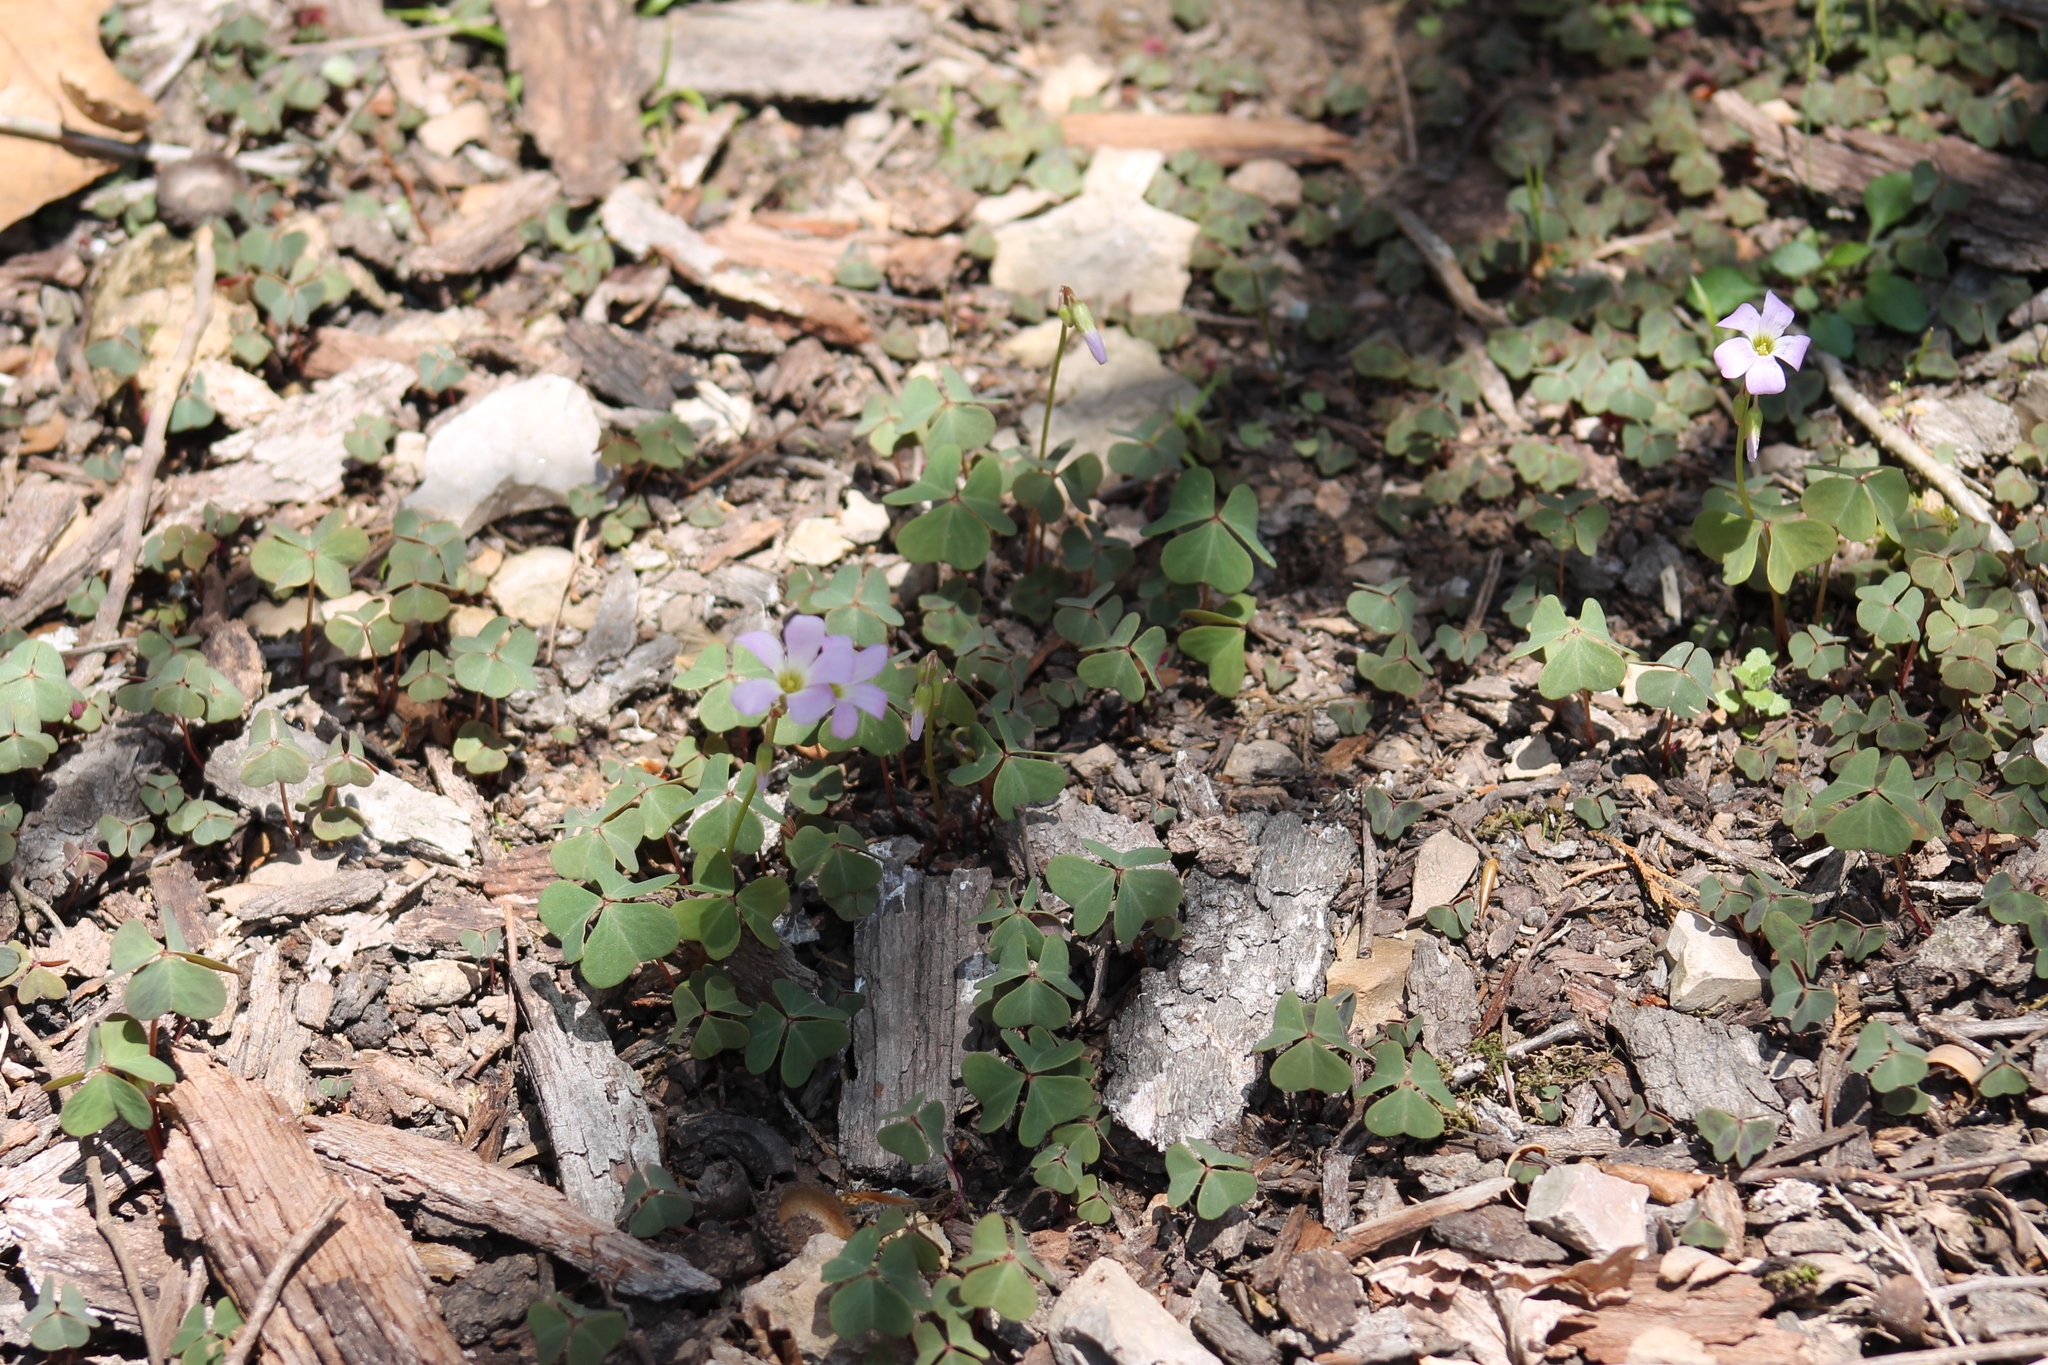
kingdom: Plantae
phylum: Tracheophyta
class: Magnoliopsida
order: Oxalidales
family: Oxalidaceae
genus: Oxalis
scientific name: Oxalis violacea
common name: Violet wood-sorrel
